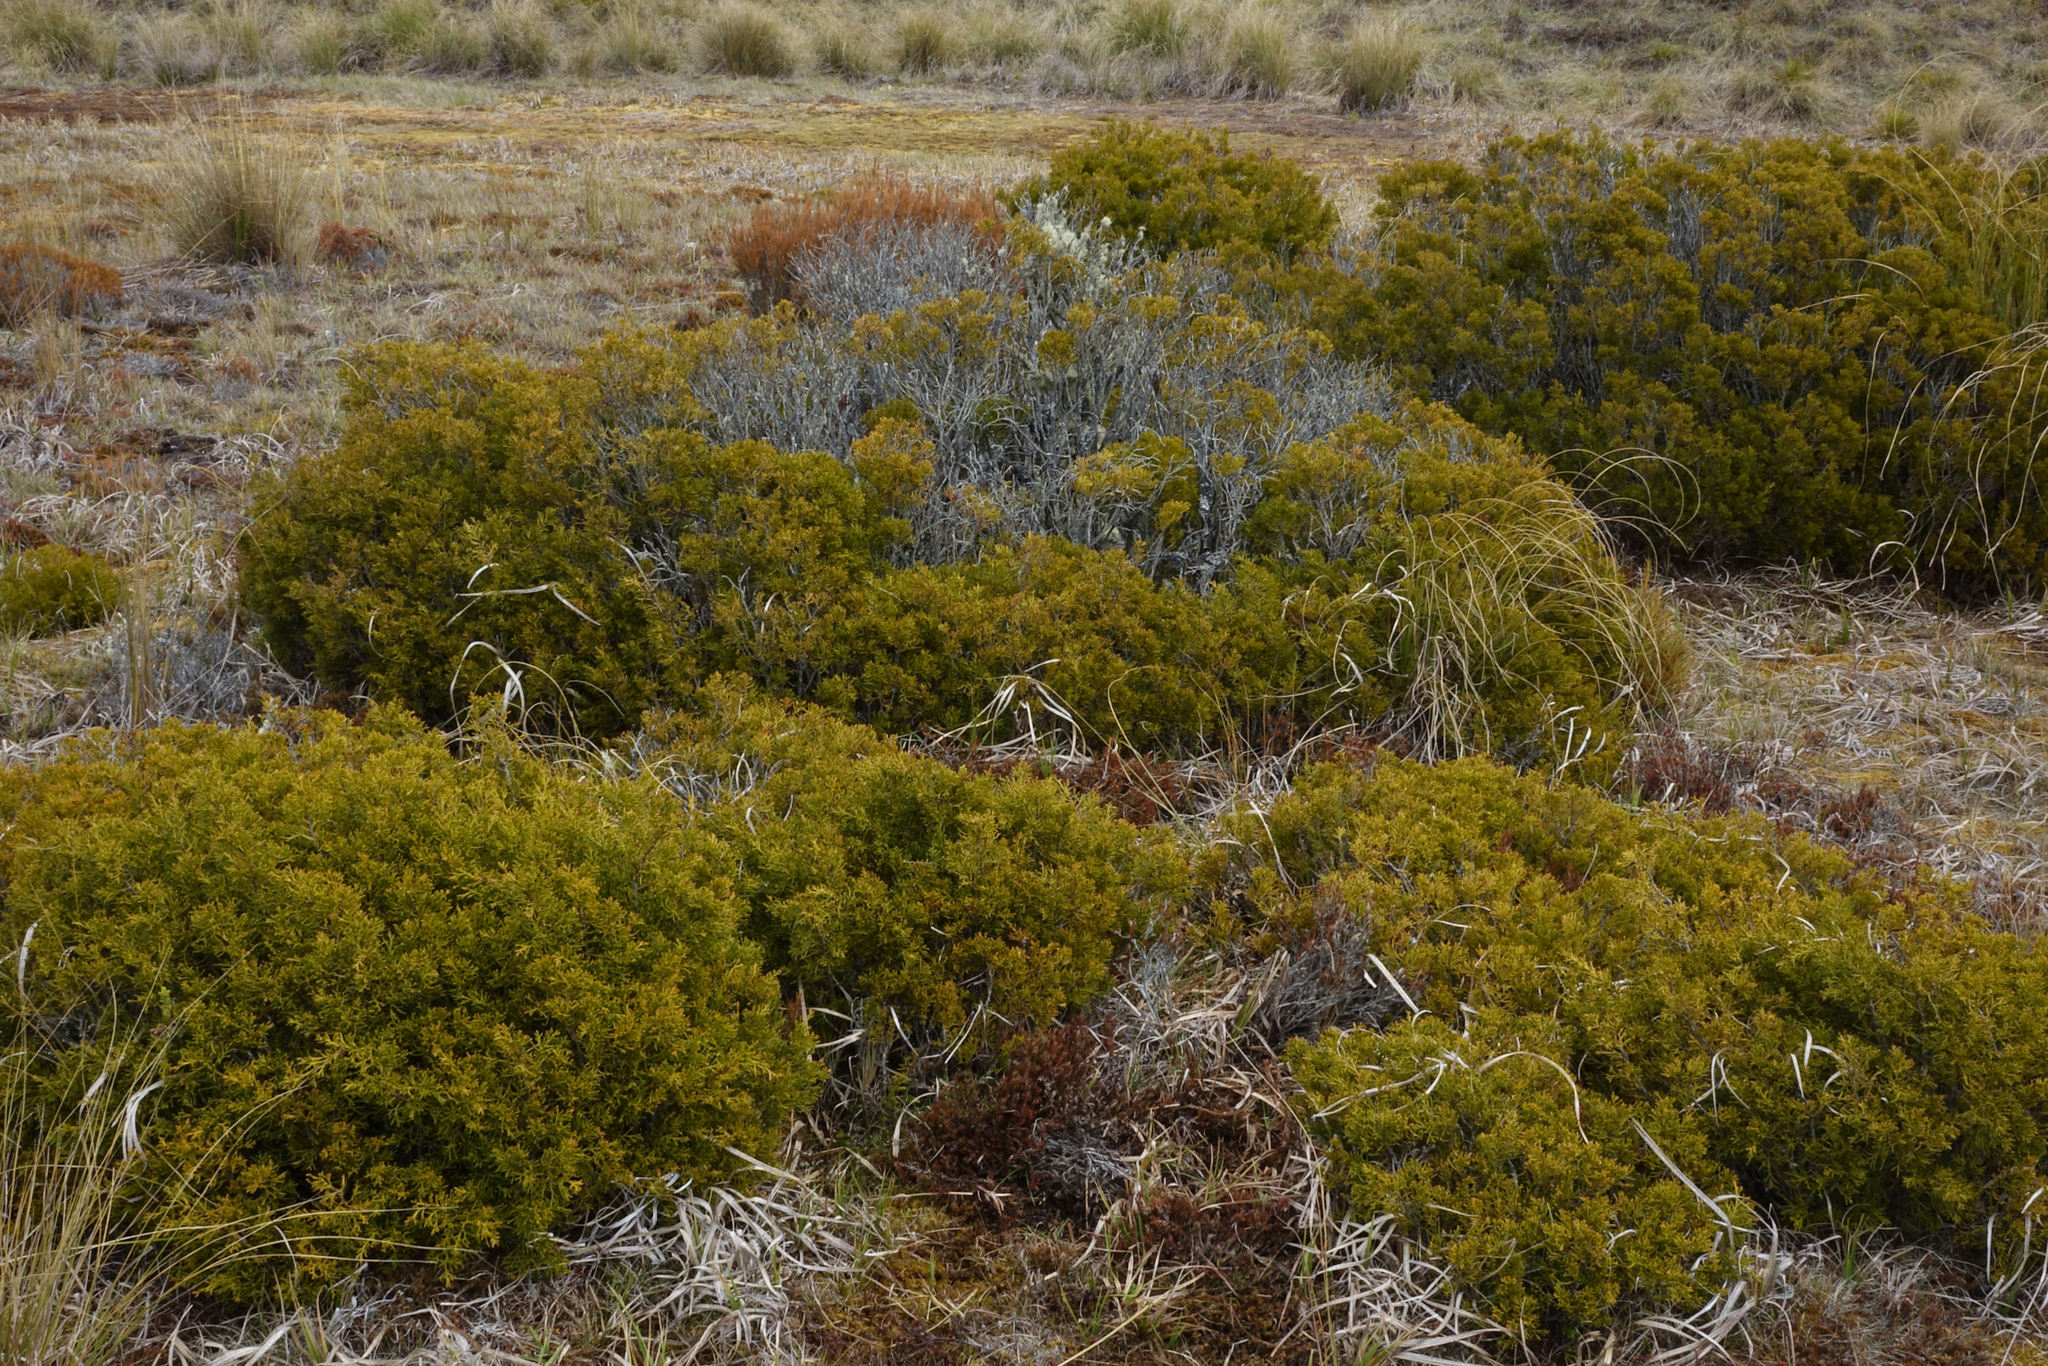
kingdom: Plantae
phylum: Tracheophyta
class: Pinopsida
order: Pinales
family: Podocarpaceae
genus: Halocarpus
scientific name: Halocarpus bidwillii
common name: Bog pine
